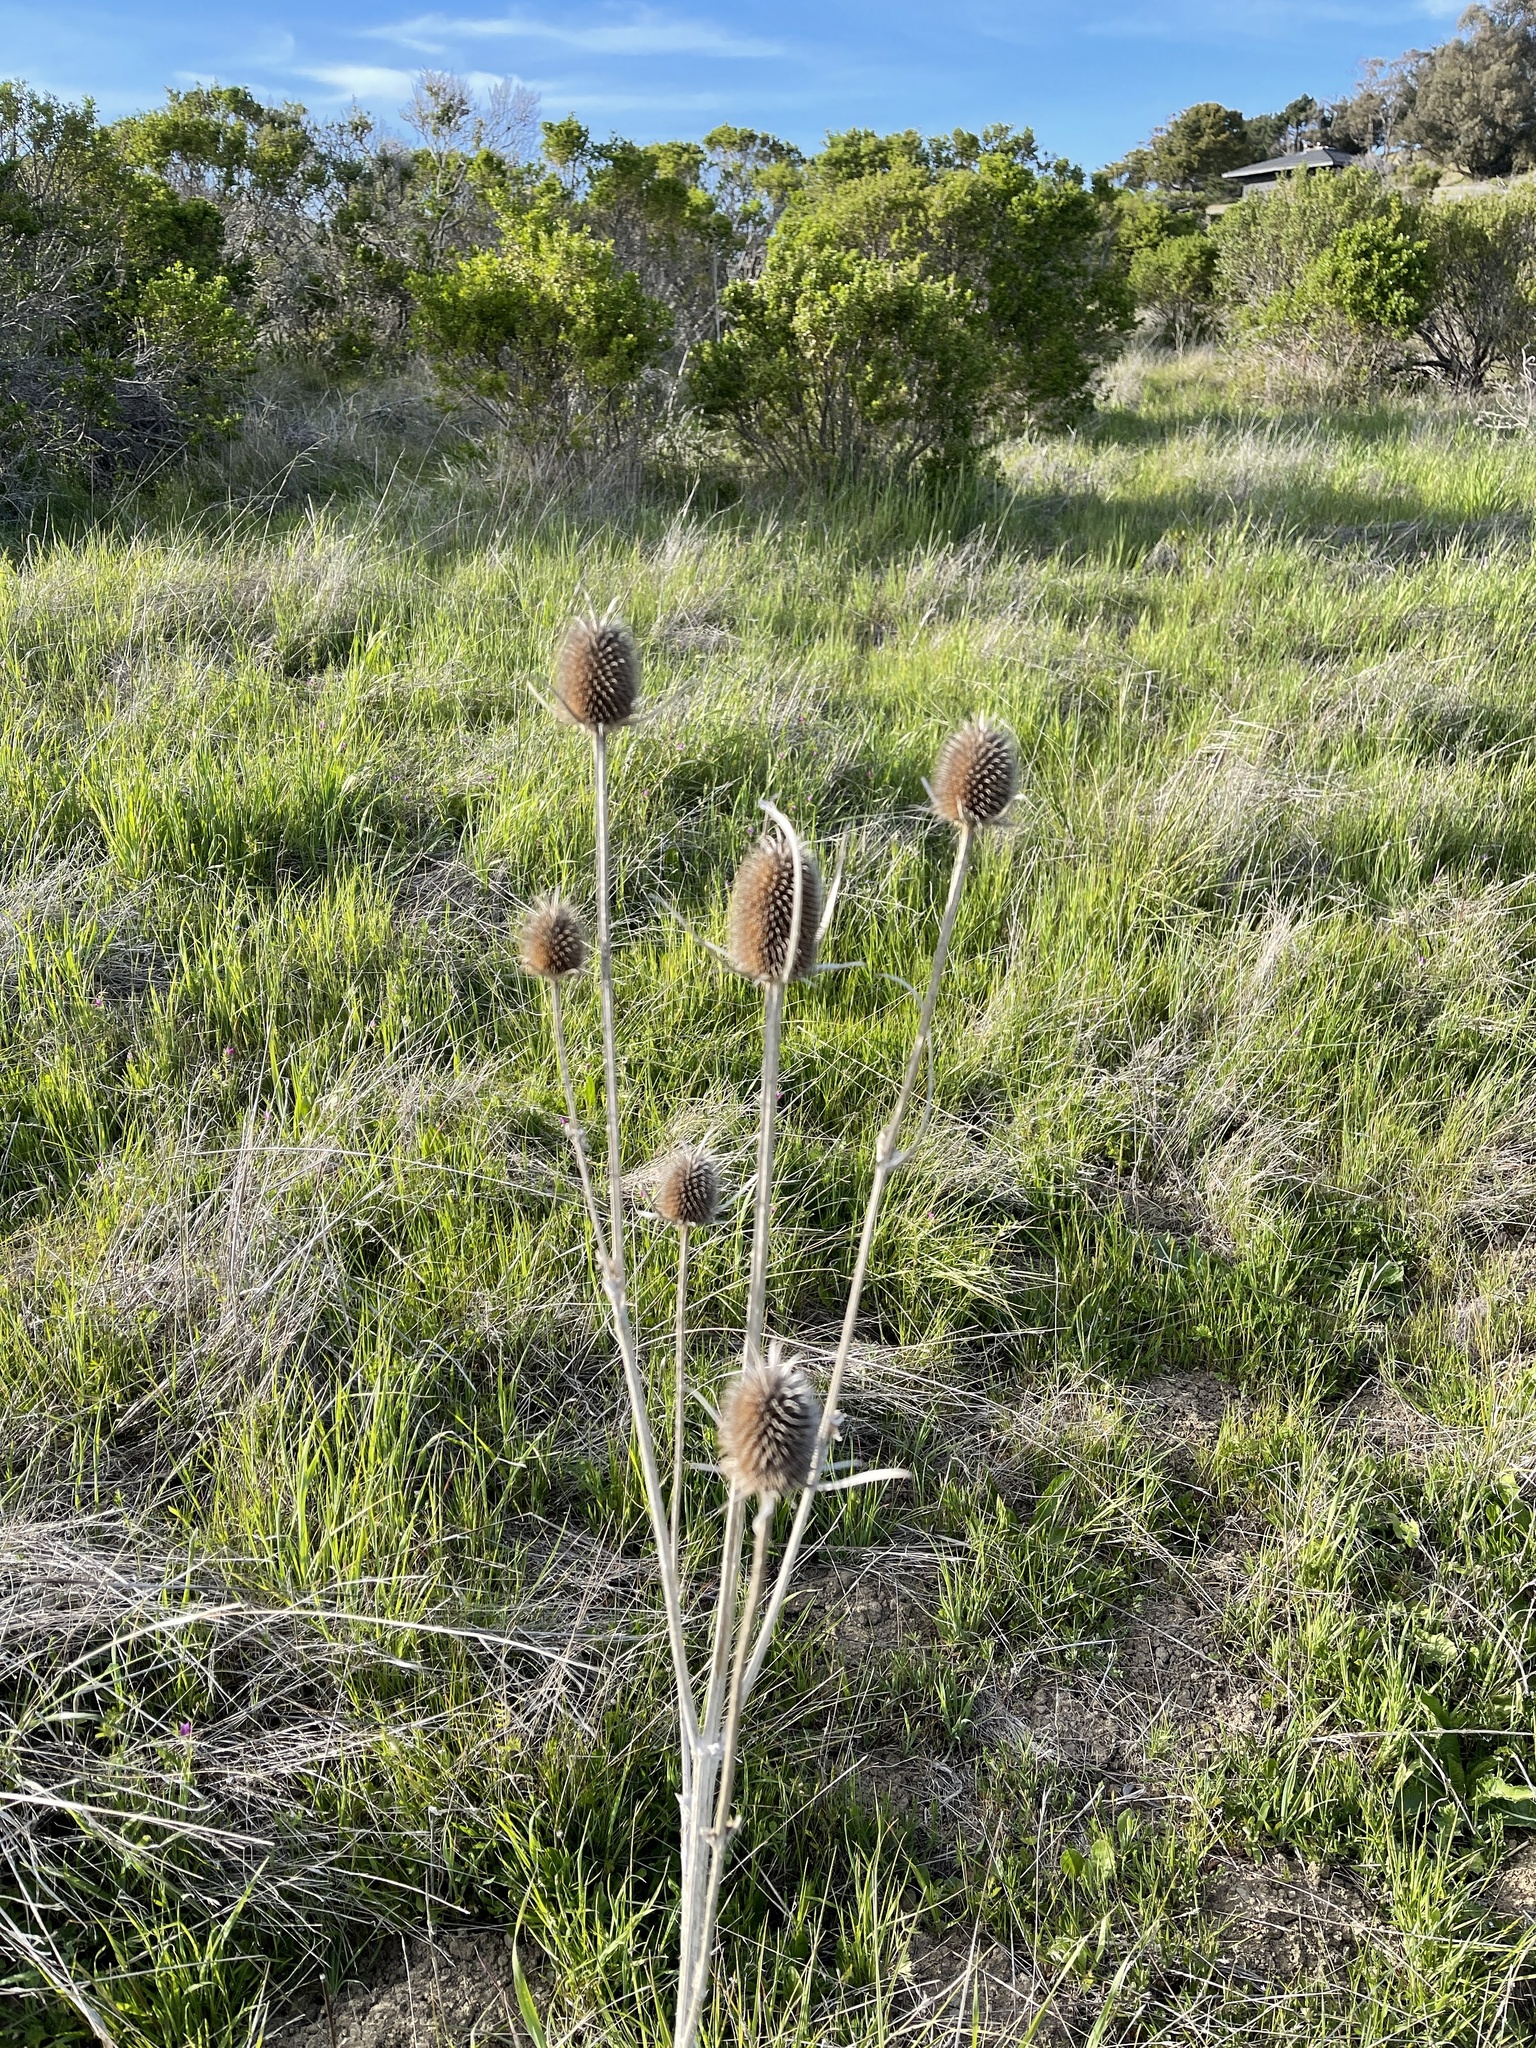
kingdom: Plantae
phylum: Tracheophyta
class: Magnoliopsida
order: Dipsacales
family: Caprifoliaceae
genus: Dipsacus
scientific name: Dipsacus sativus
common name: Fuller's teasel
